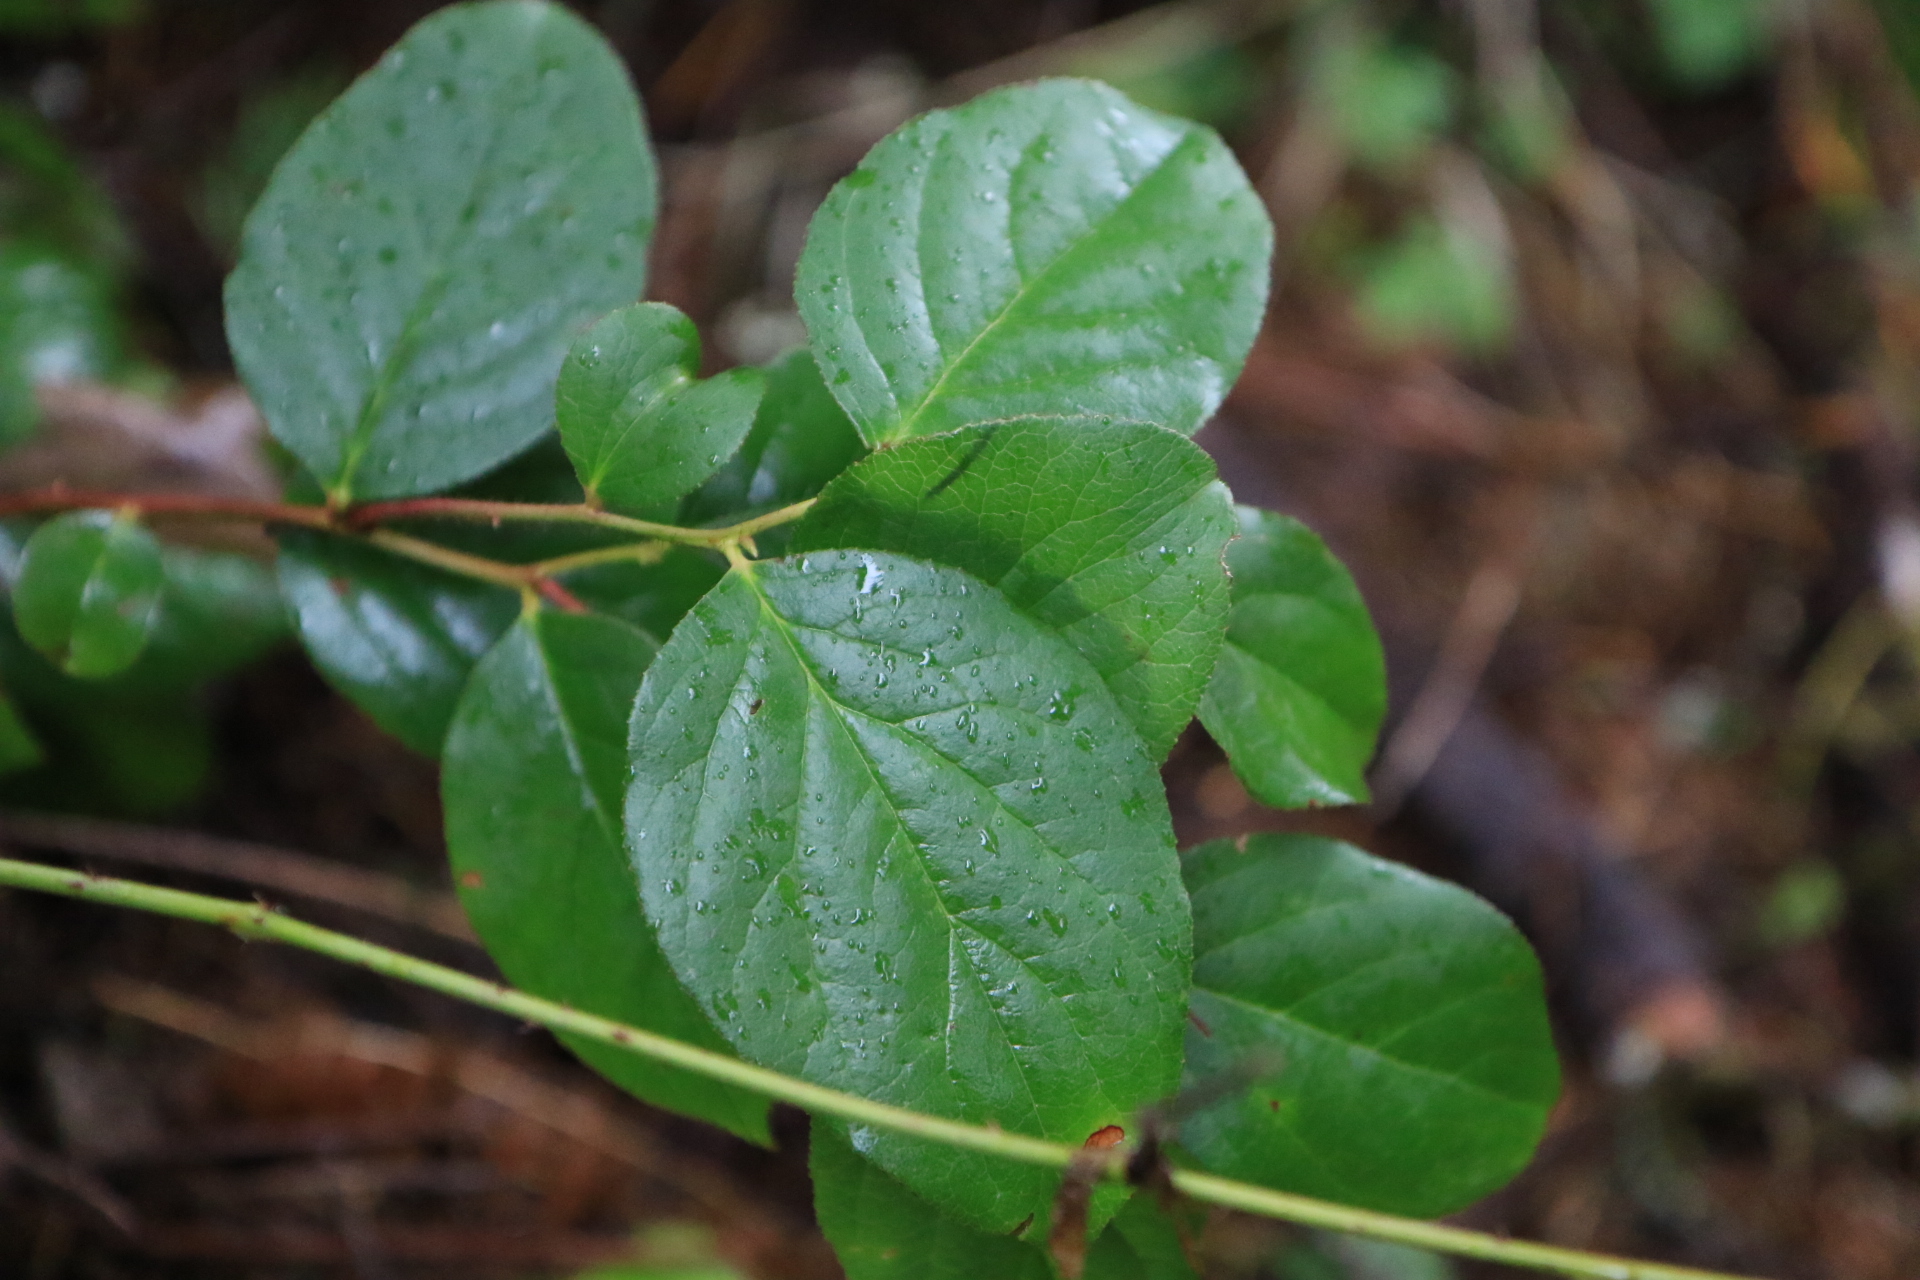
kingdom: Plantae
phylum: Tracheophyta
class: Magnoliopsida
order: Ericales
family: Ericaceae
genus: Gaultheria
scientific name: Gaultheria shallon
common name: Shallon
